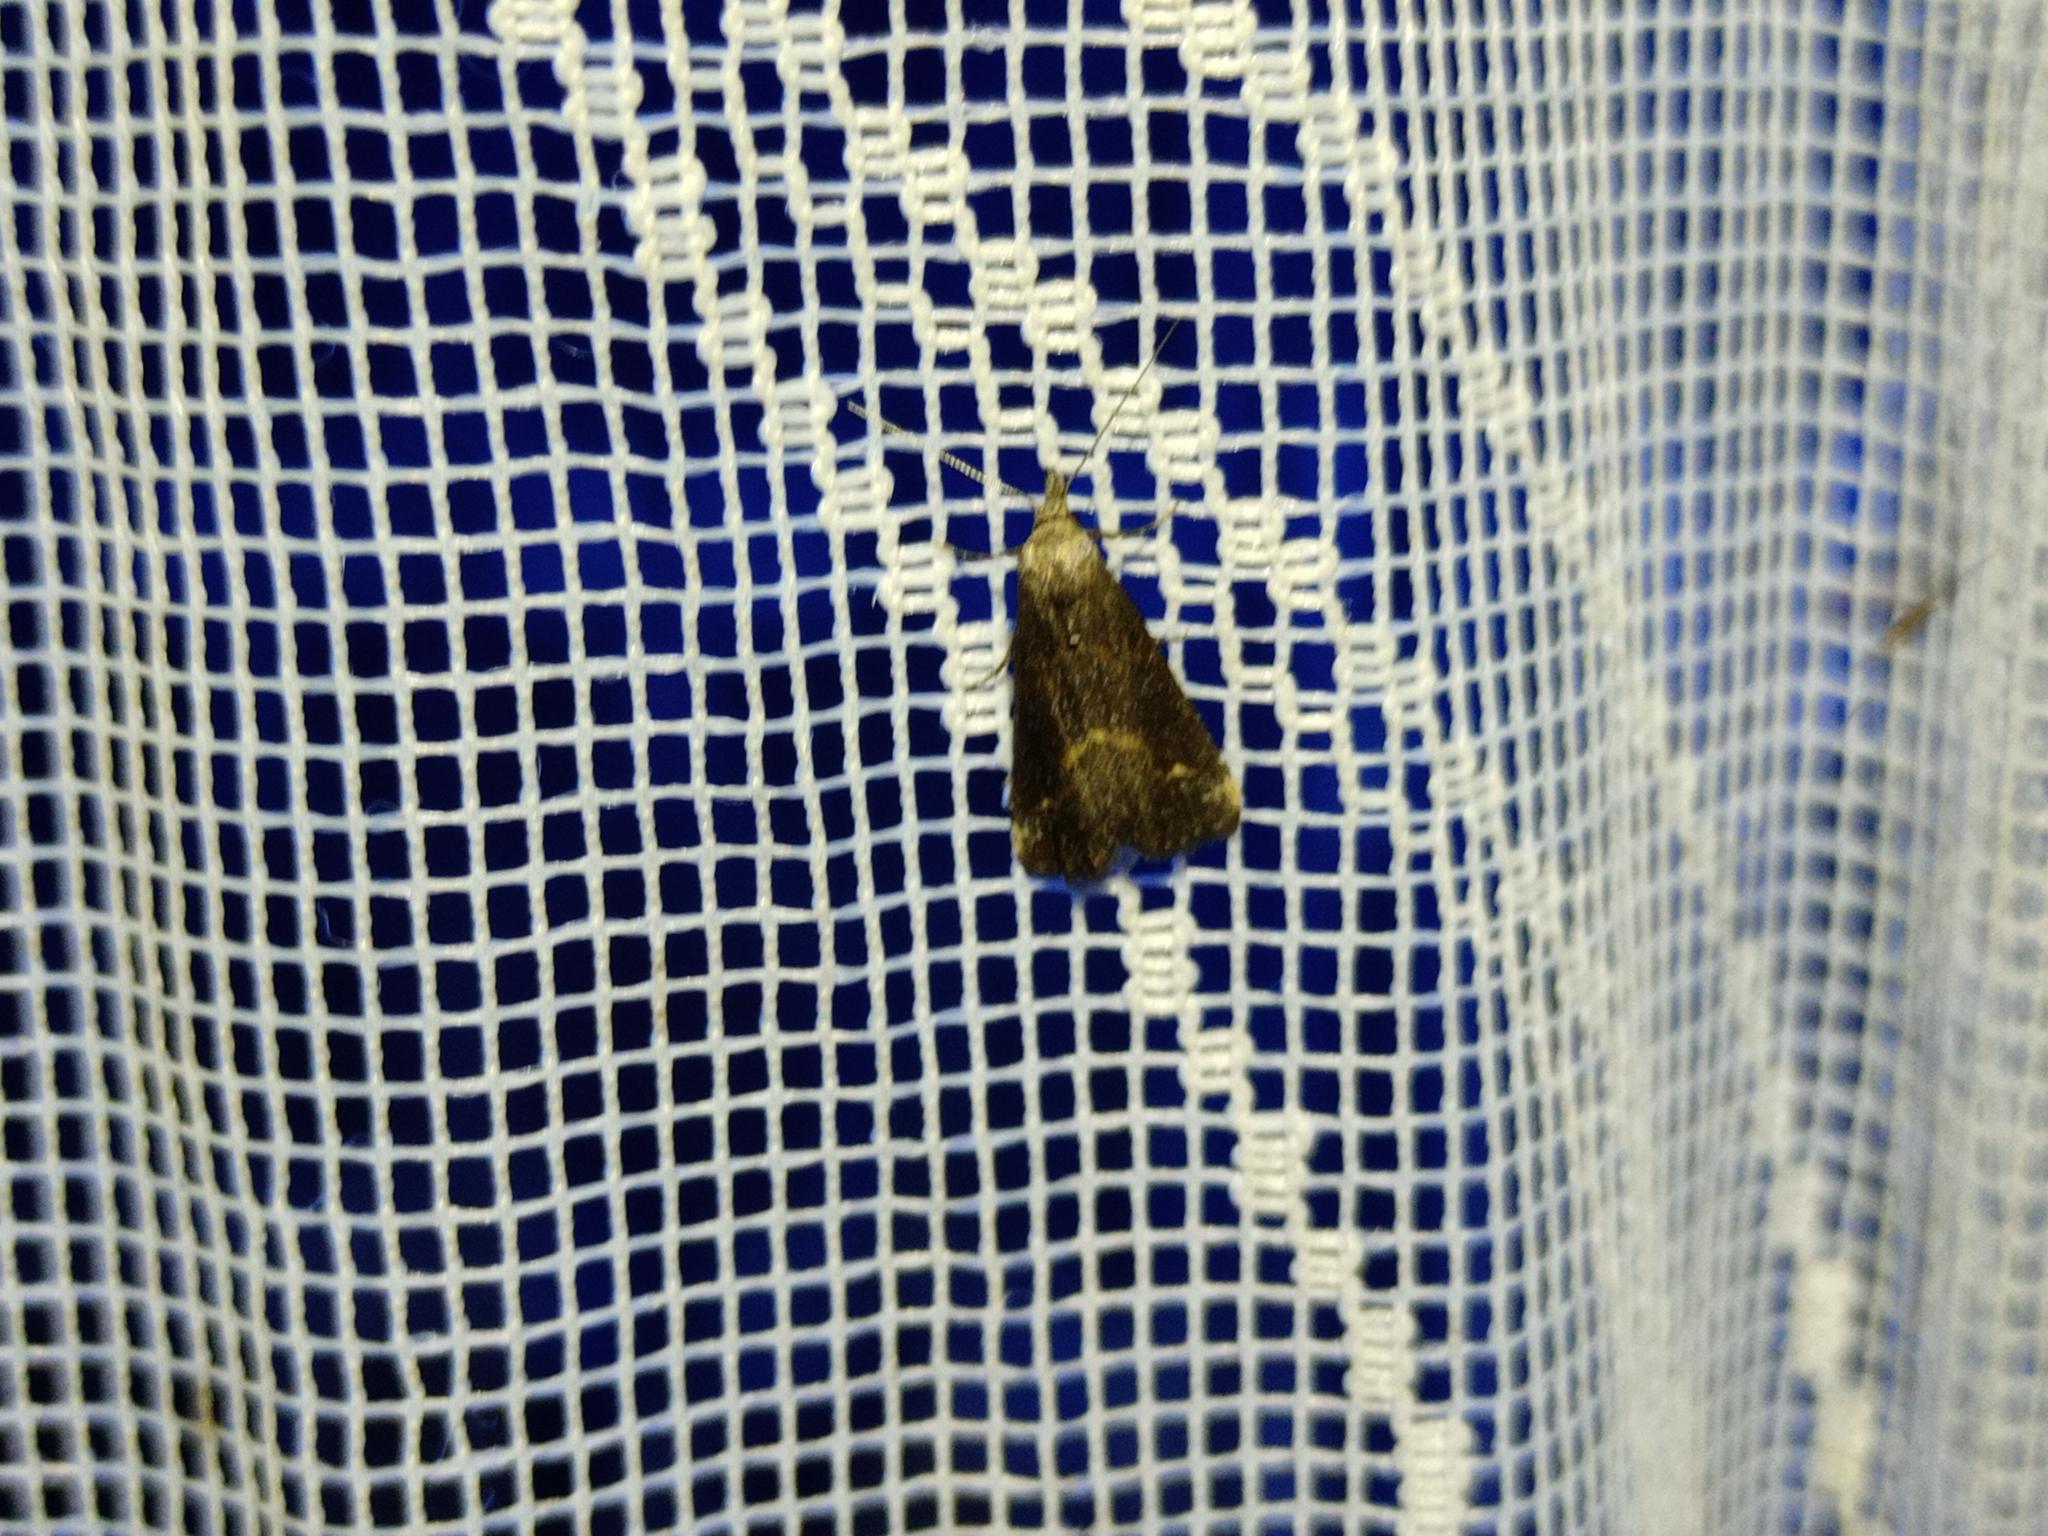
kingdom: Animalia
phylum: Arthropoda
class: Insecta
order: Lepidoptera
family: Erebidae
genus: Schrankia
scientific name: Schrankia costaestrigalis
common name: Pinion-streaked snout
